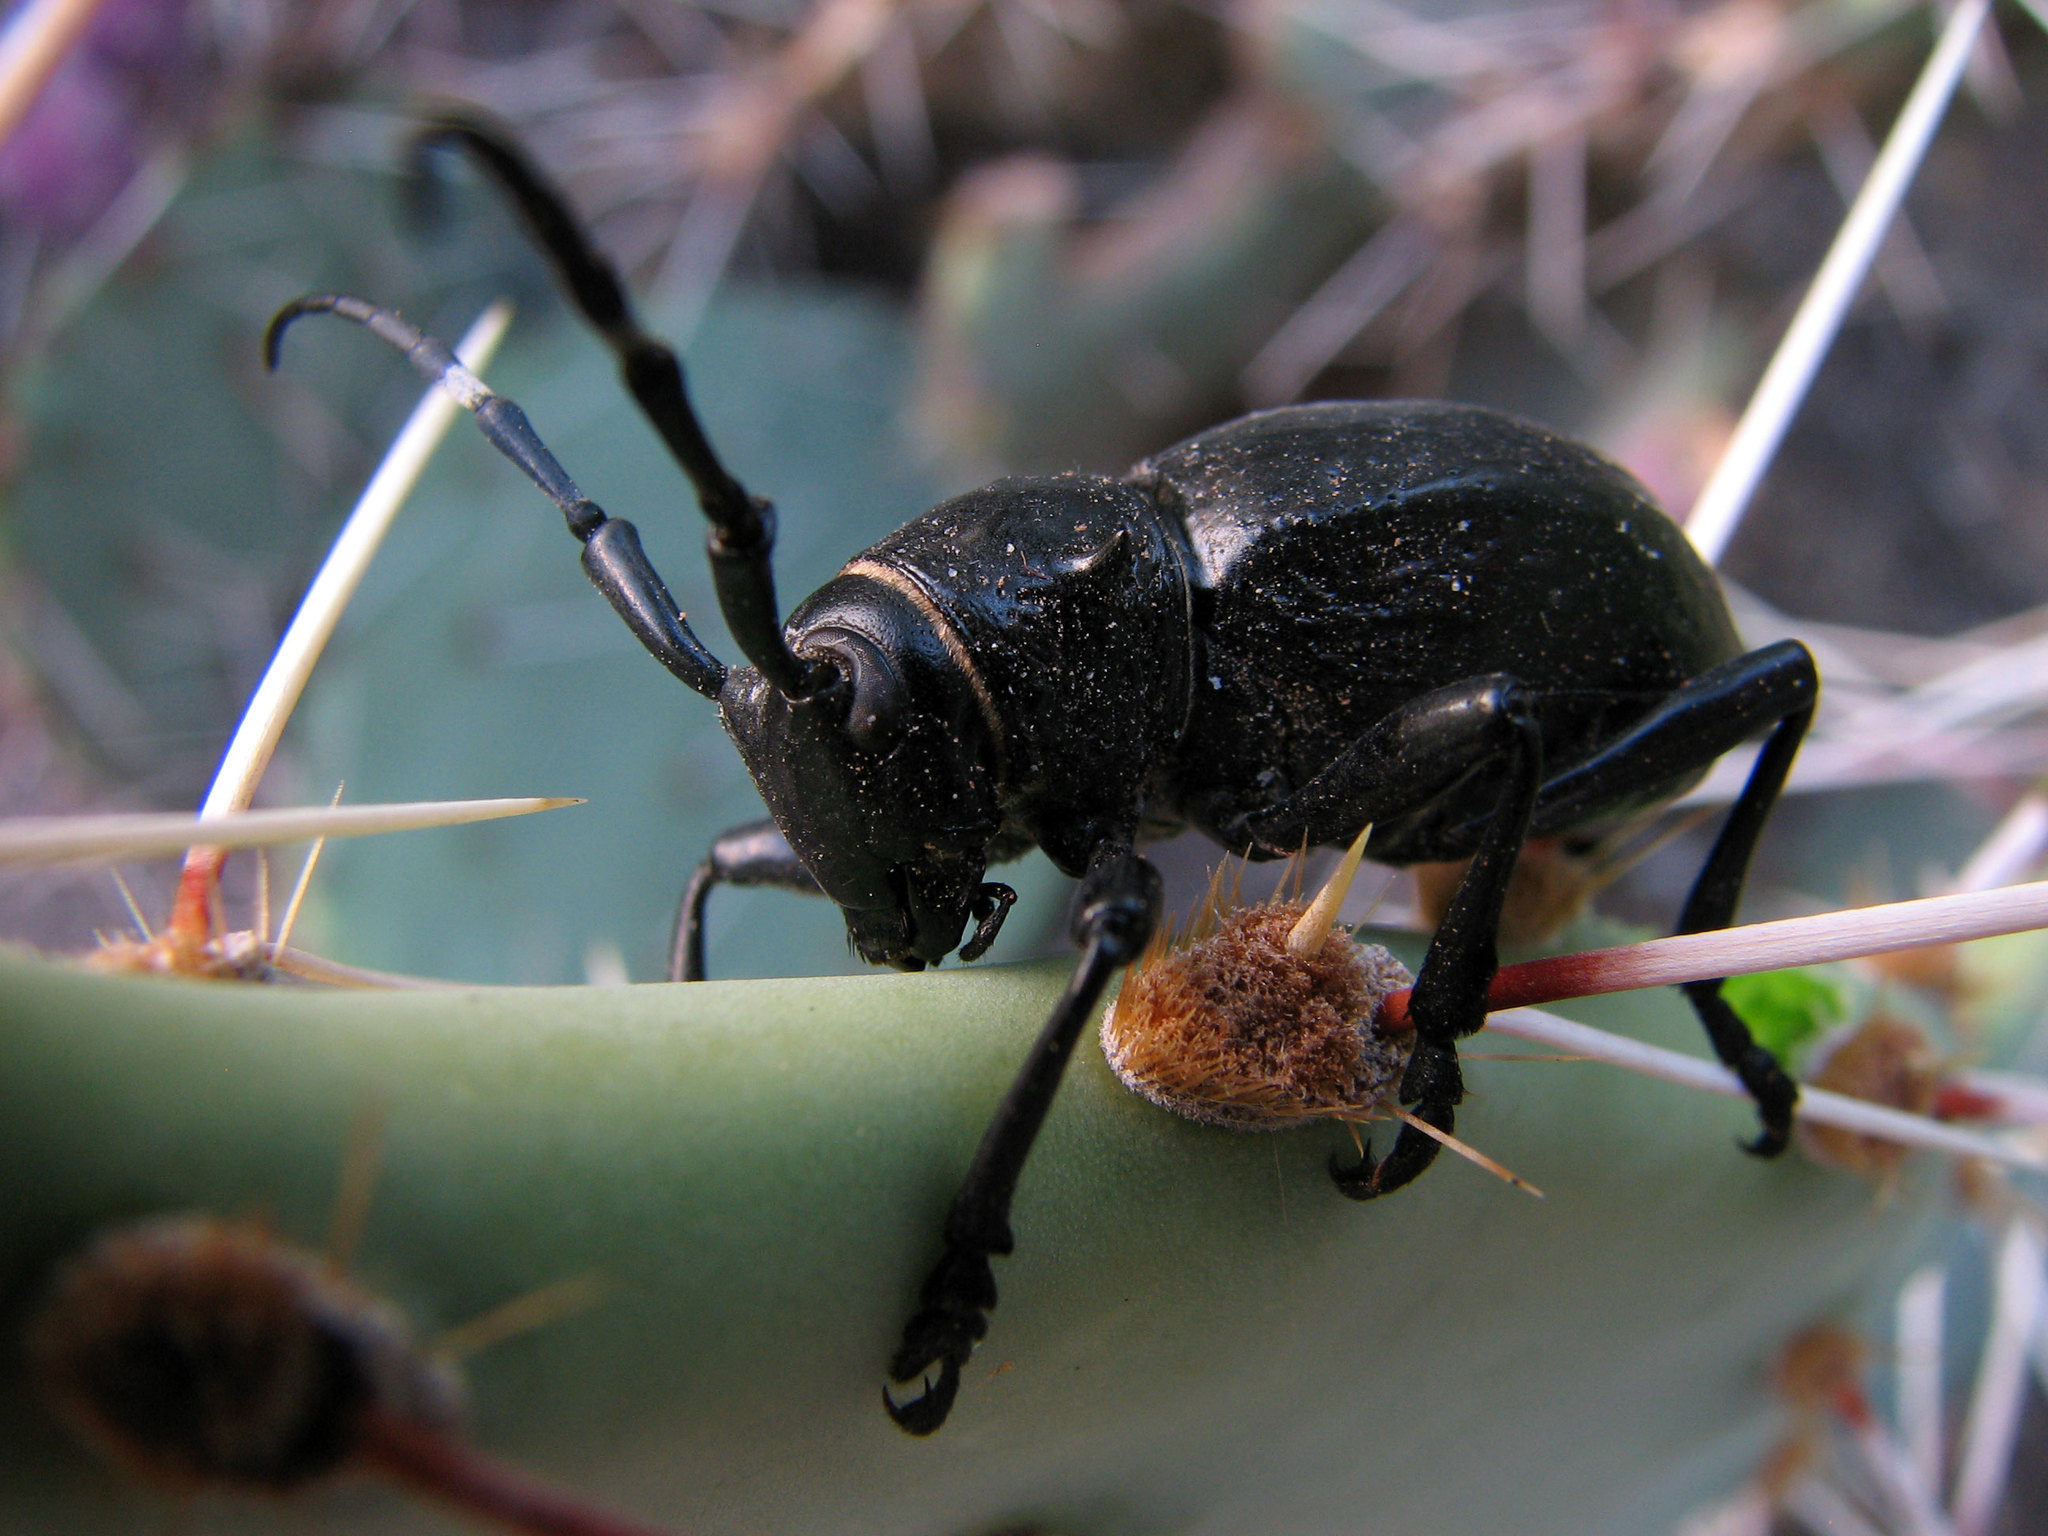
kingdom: Animalia
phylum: Arthropoda
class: Insecta
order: Coleoptera
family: Cerambycidae
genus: Moneilema
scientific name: Moneilema gigas
